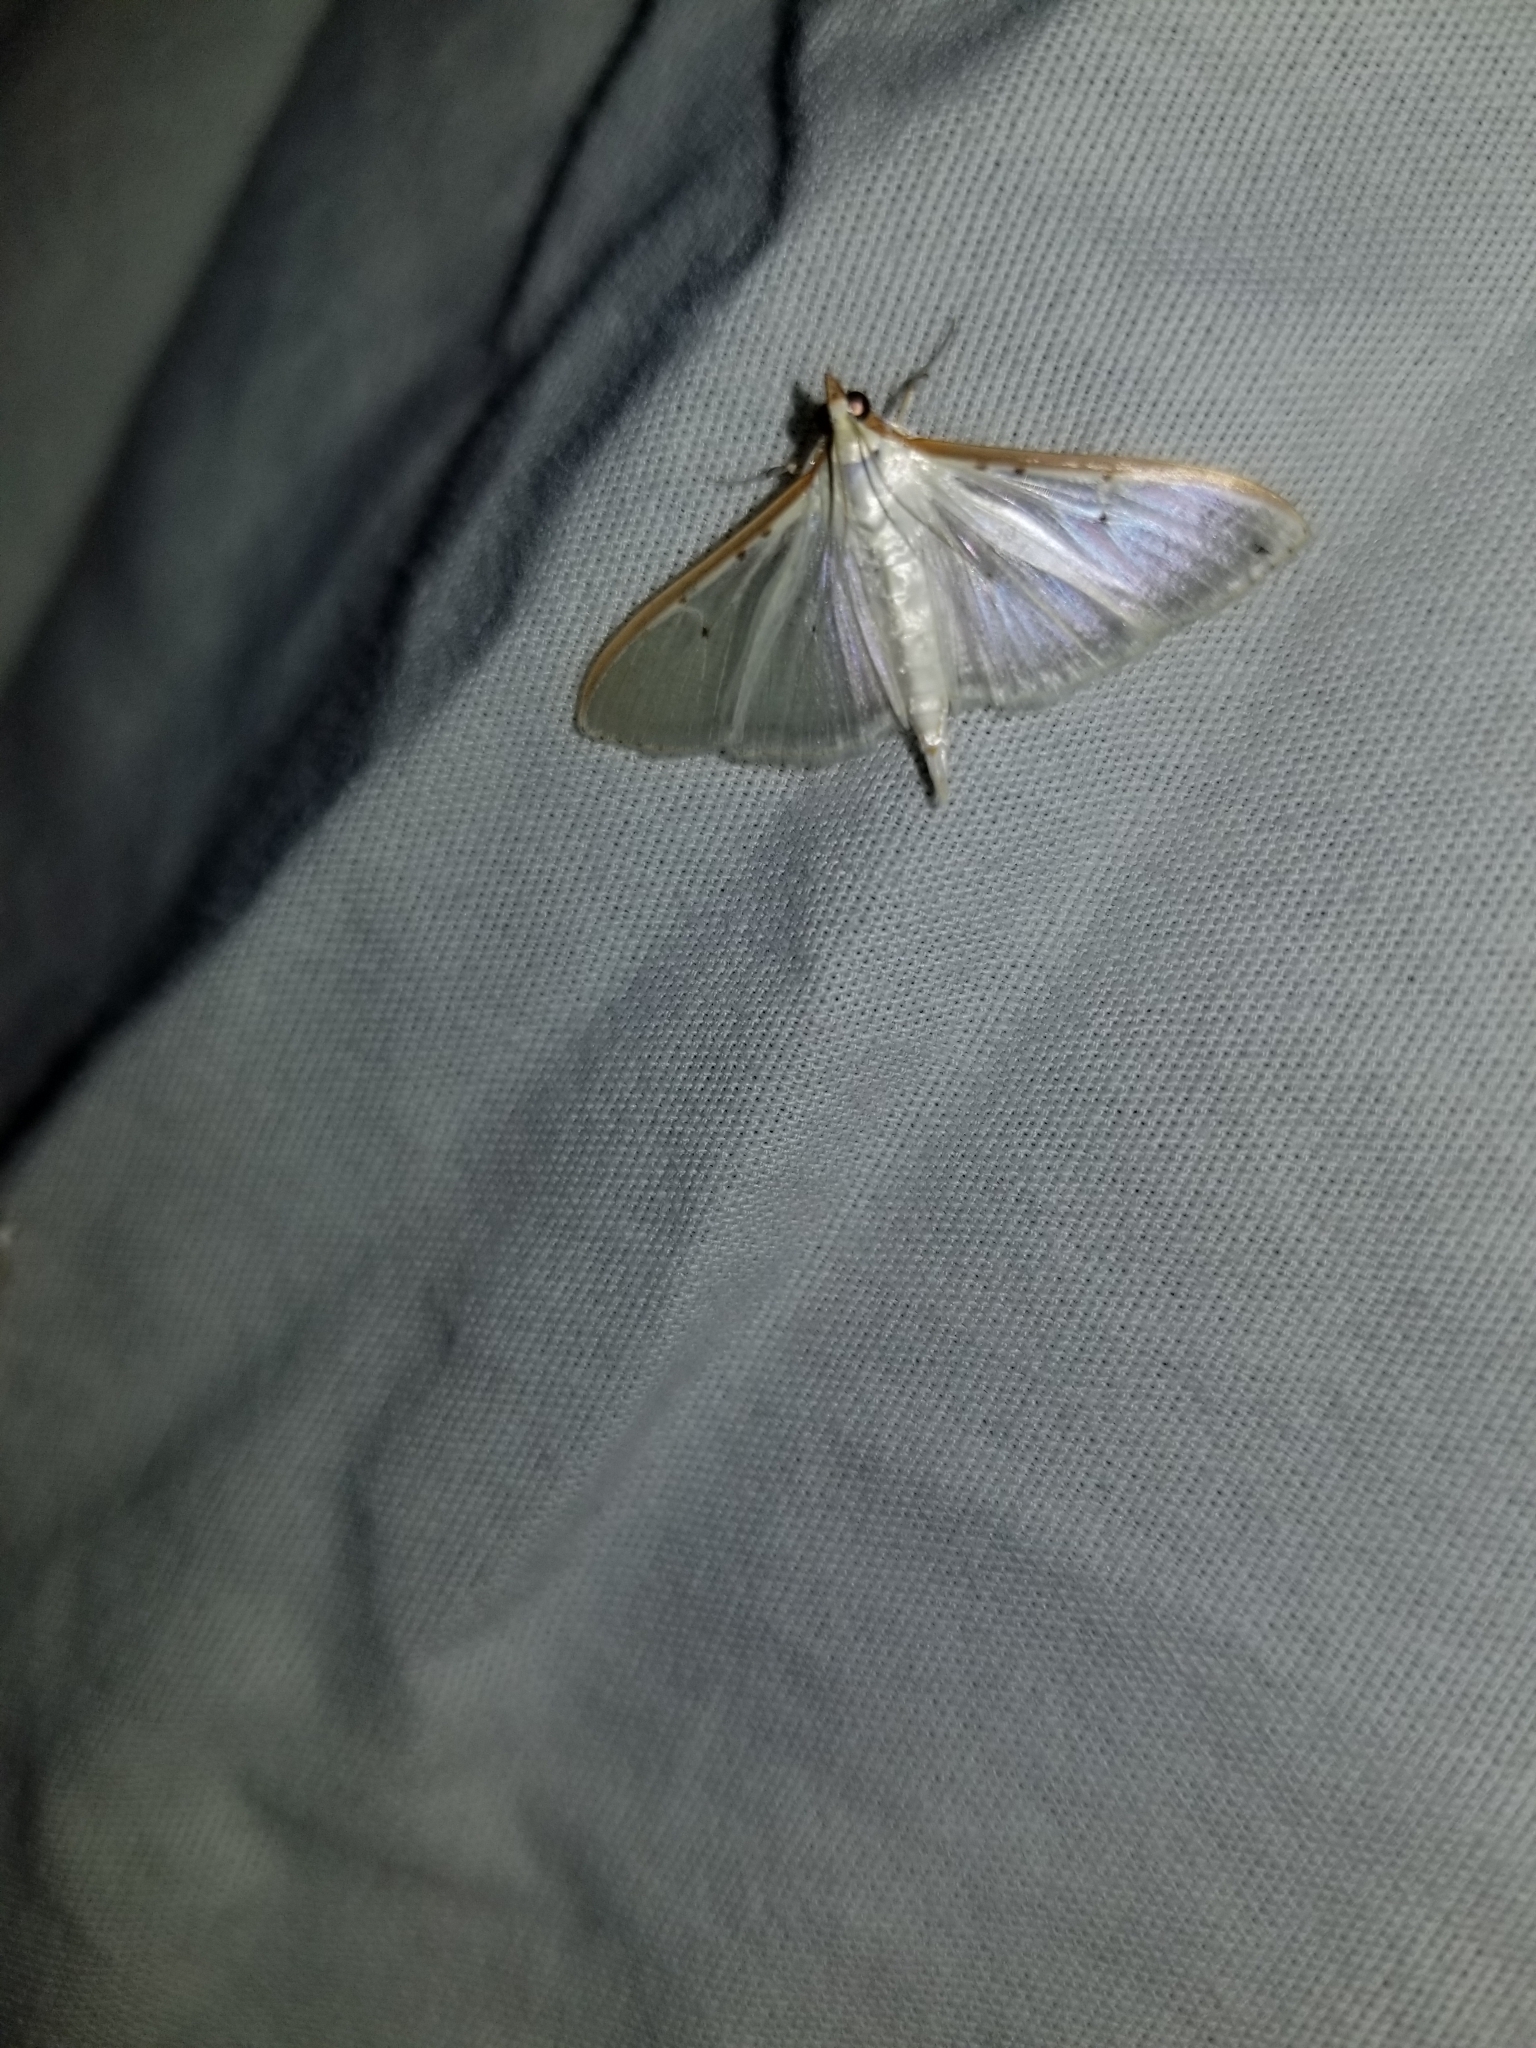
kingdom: Animalia
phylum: Arthropoda
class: Insecta
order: Lepidoptera
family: Crambidae
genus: Palpita
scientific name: Palpita quadristigmalis
